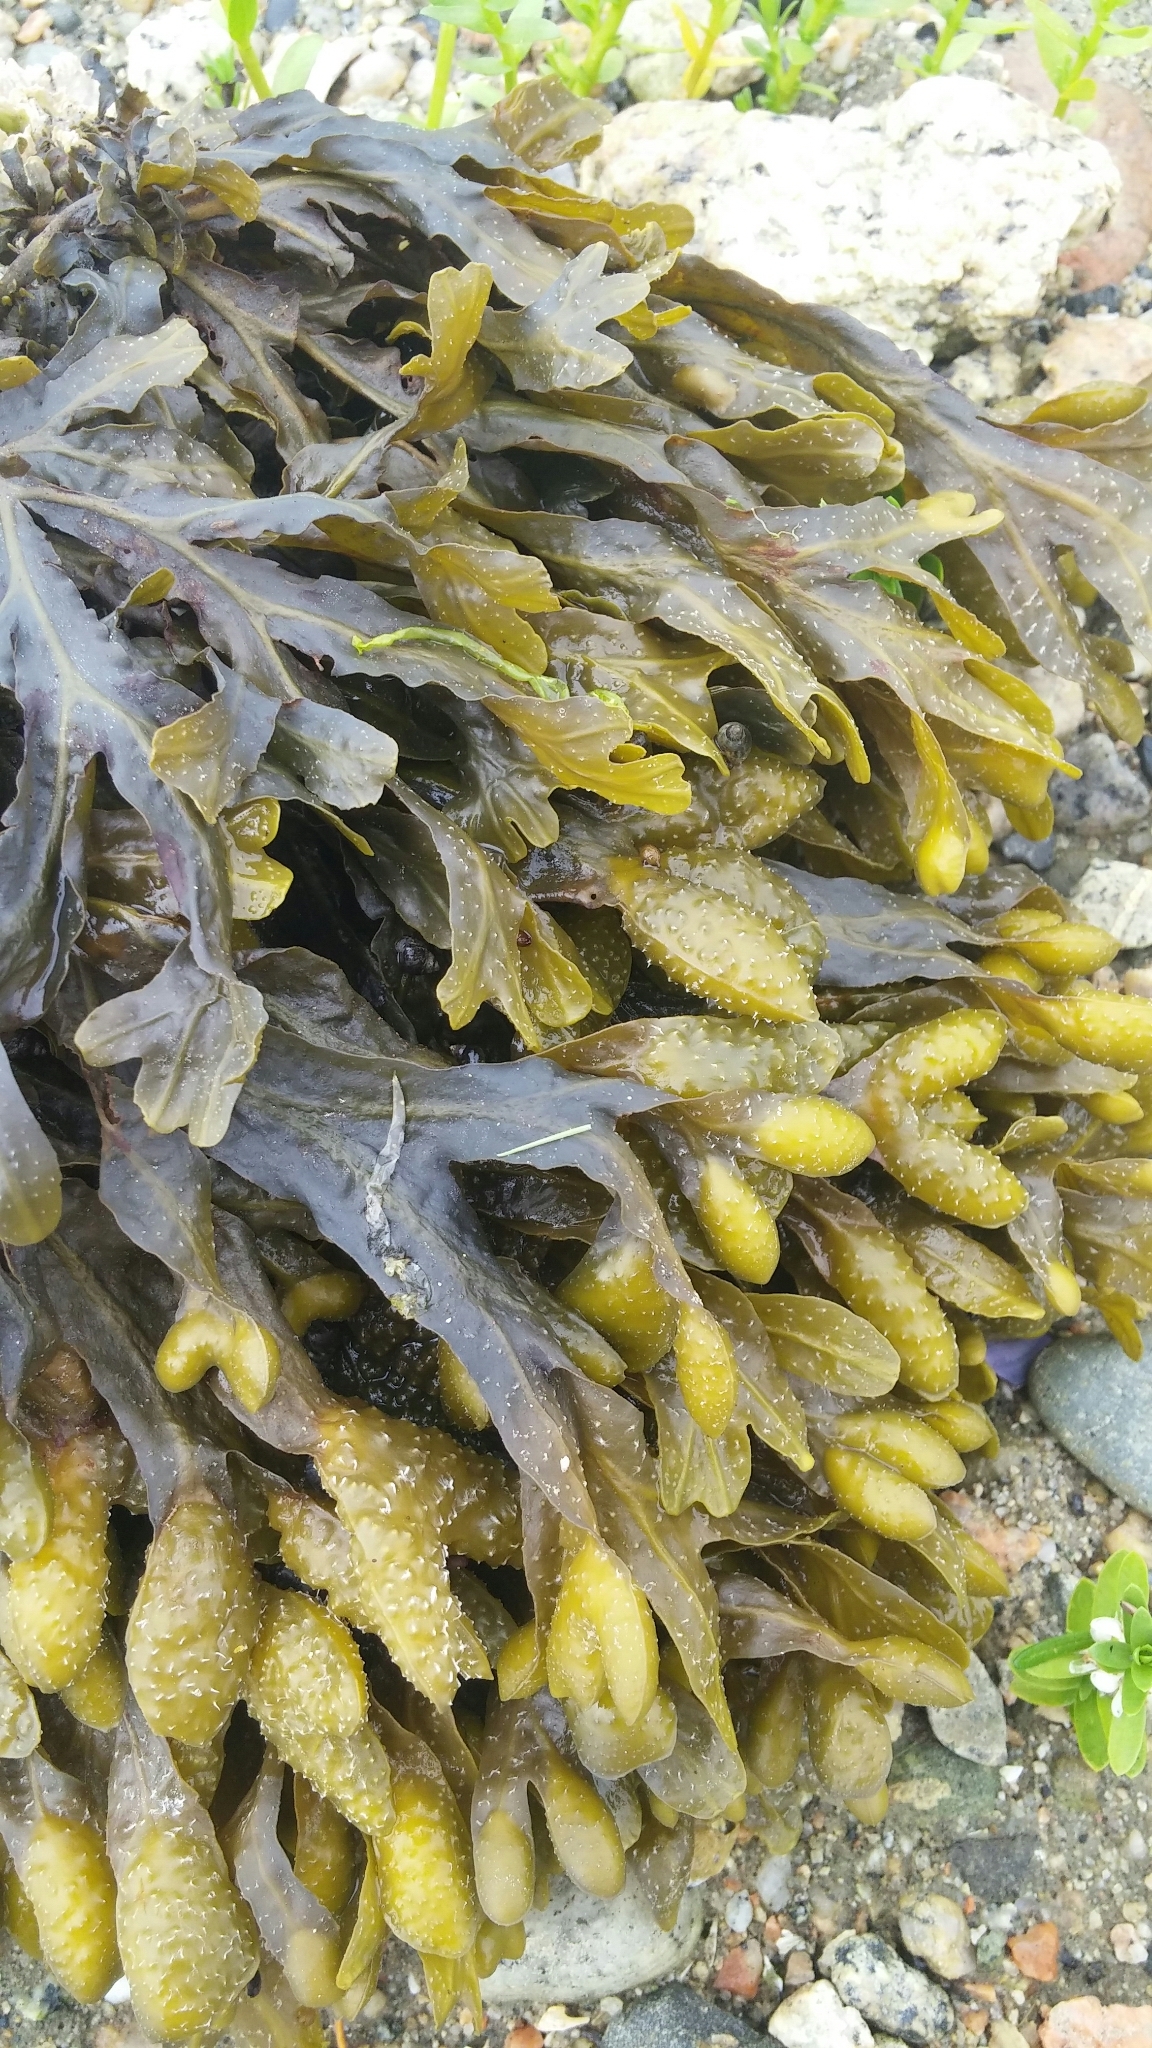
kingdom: Chromista
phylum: Ochrophyta
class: Phaeophyceae
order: Fucales
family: Fucaceae
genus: Fucus
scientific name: Fucus distichus
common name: Rockweed
